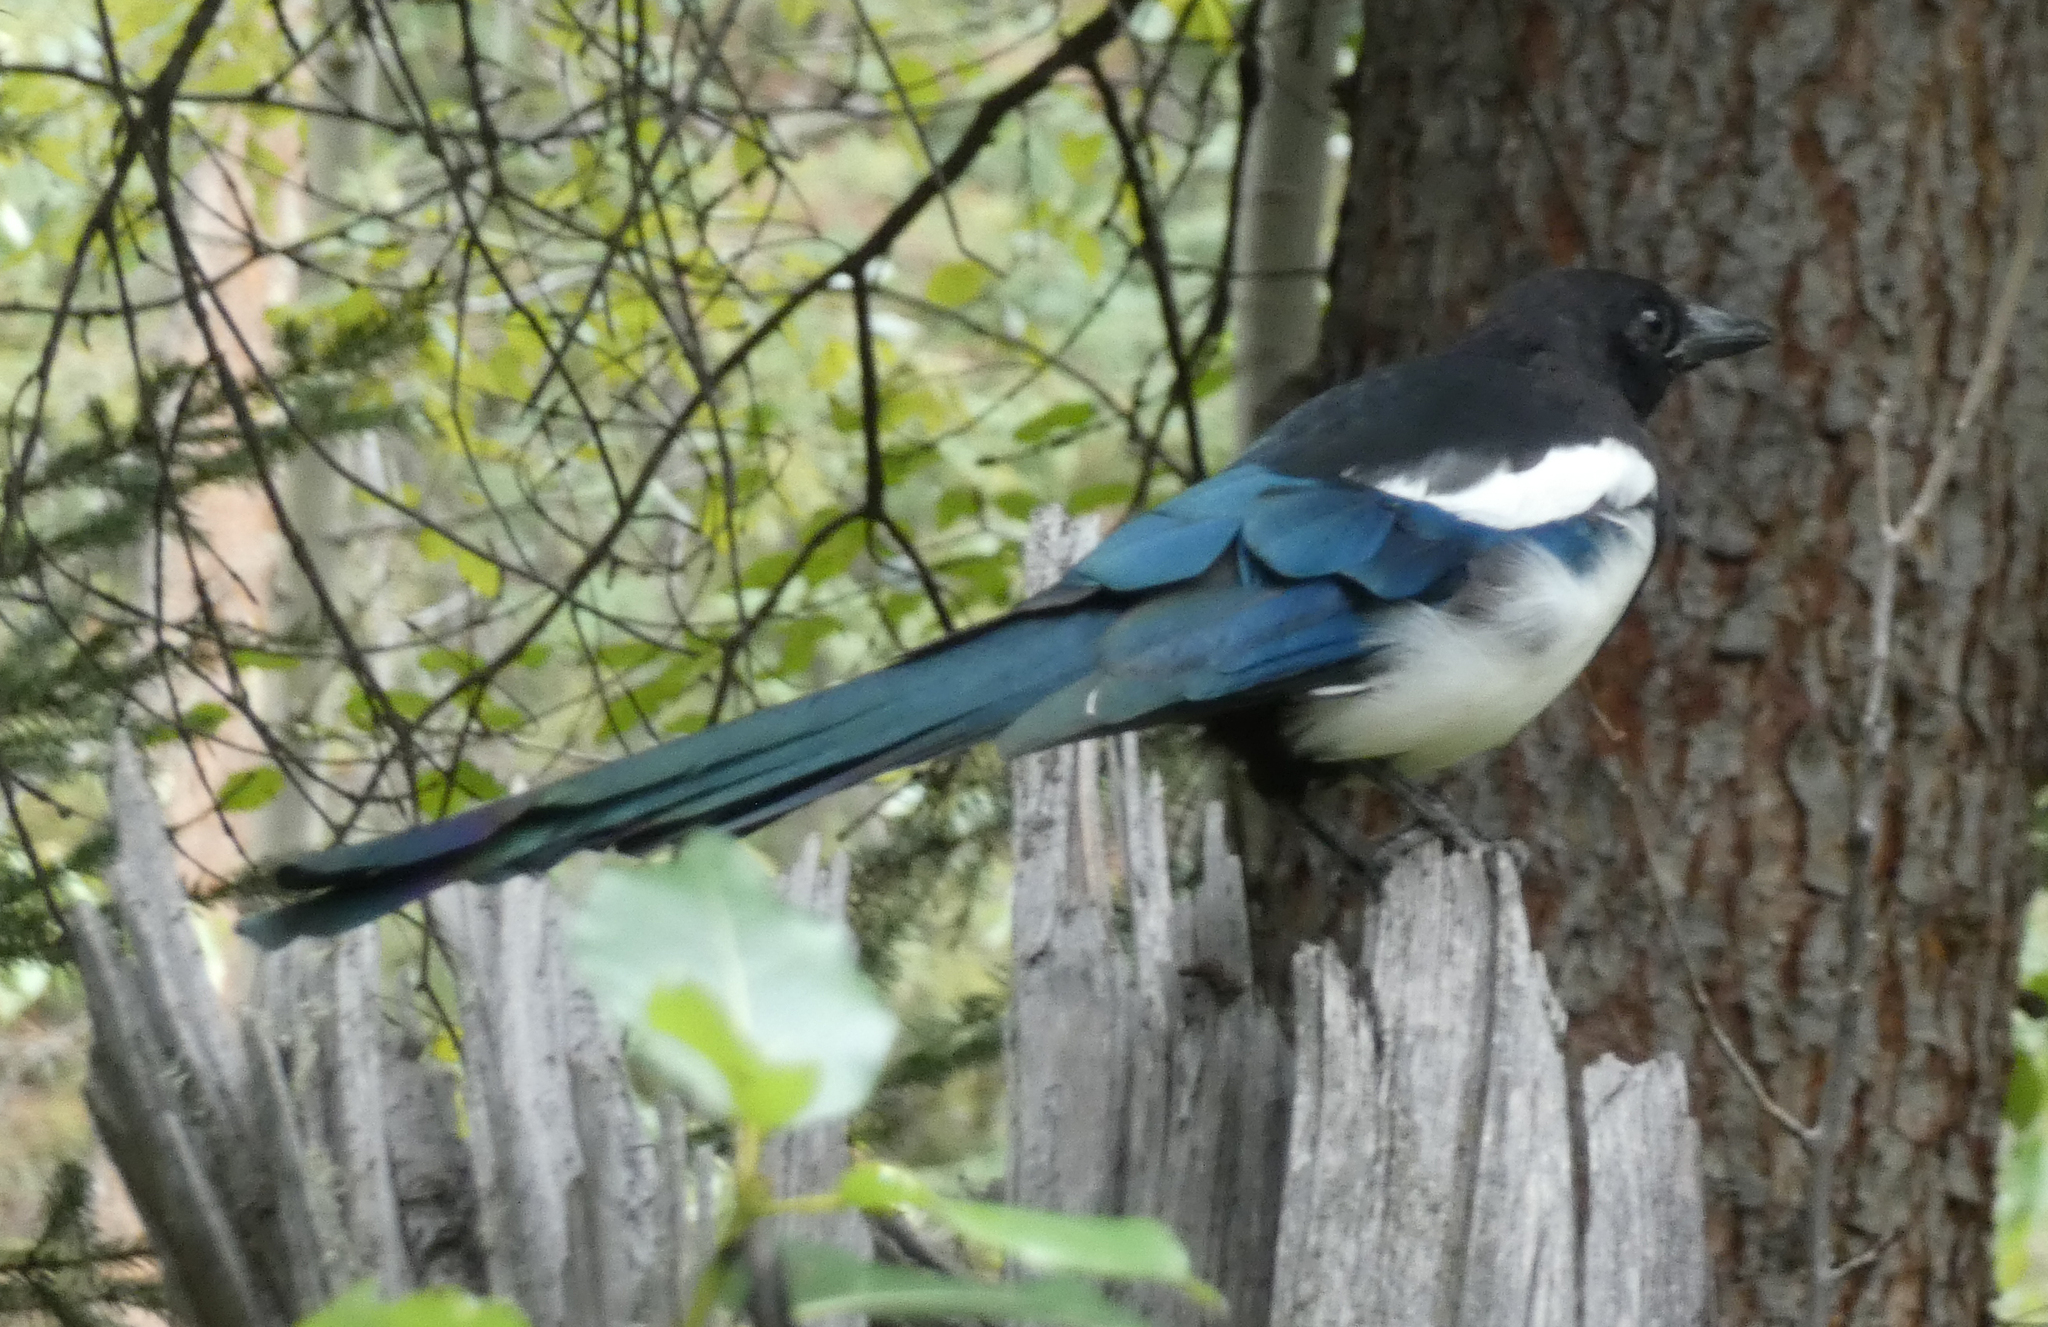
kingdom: Animalia
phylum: Chordata
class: Aves
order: Passeriformes
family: Corvidae
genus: Pica
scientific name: Pica hudsonia
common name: Black-billed magpie
